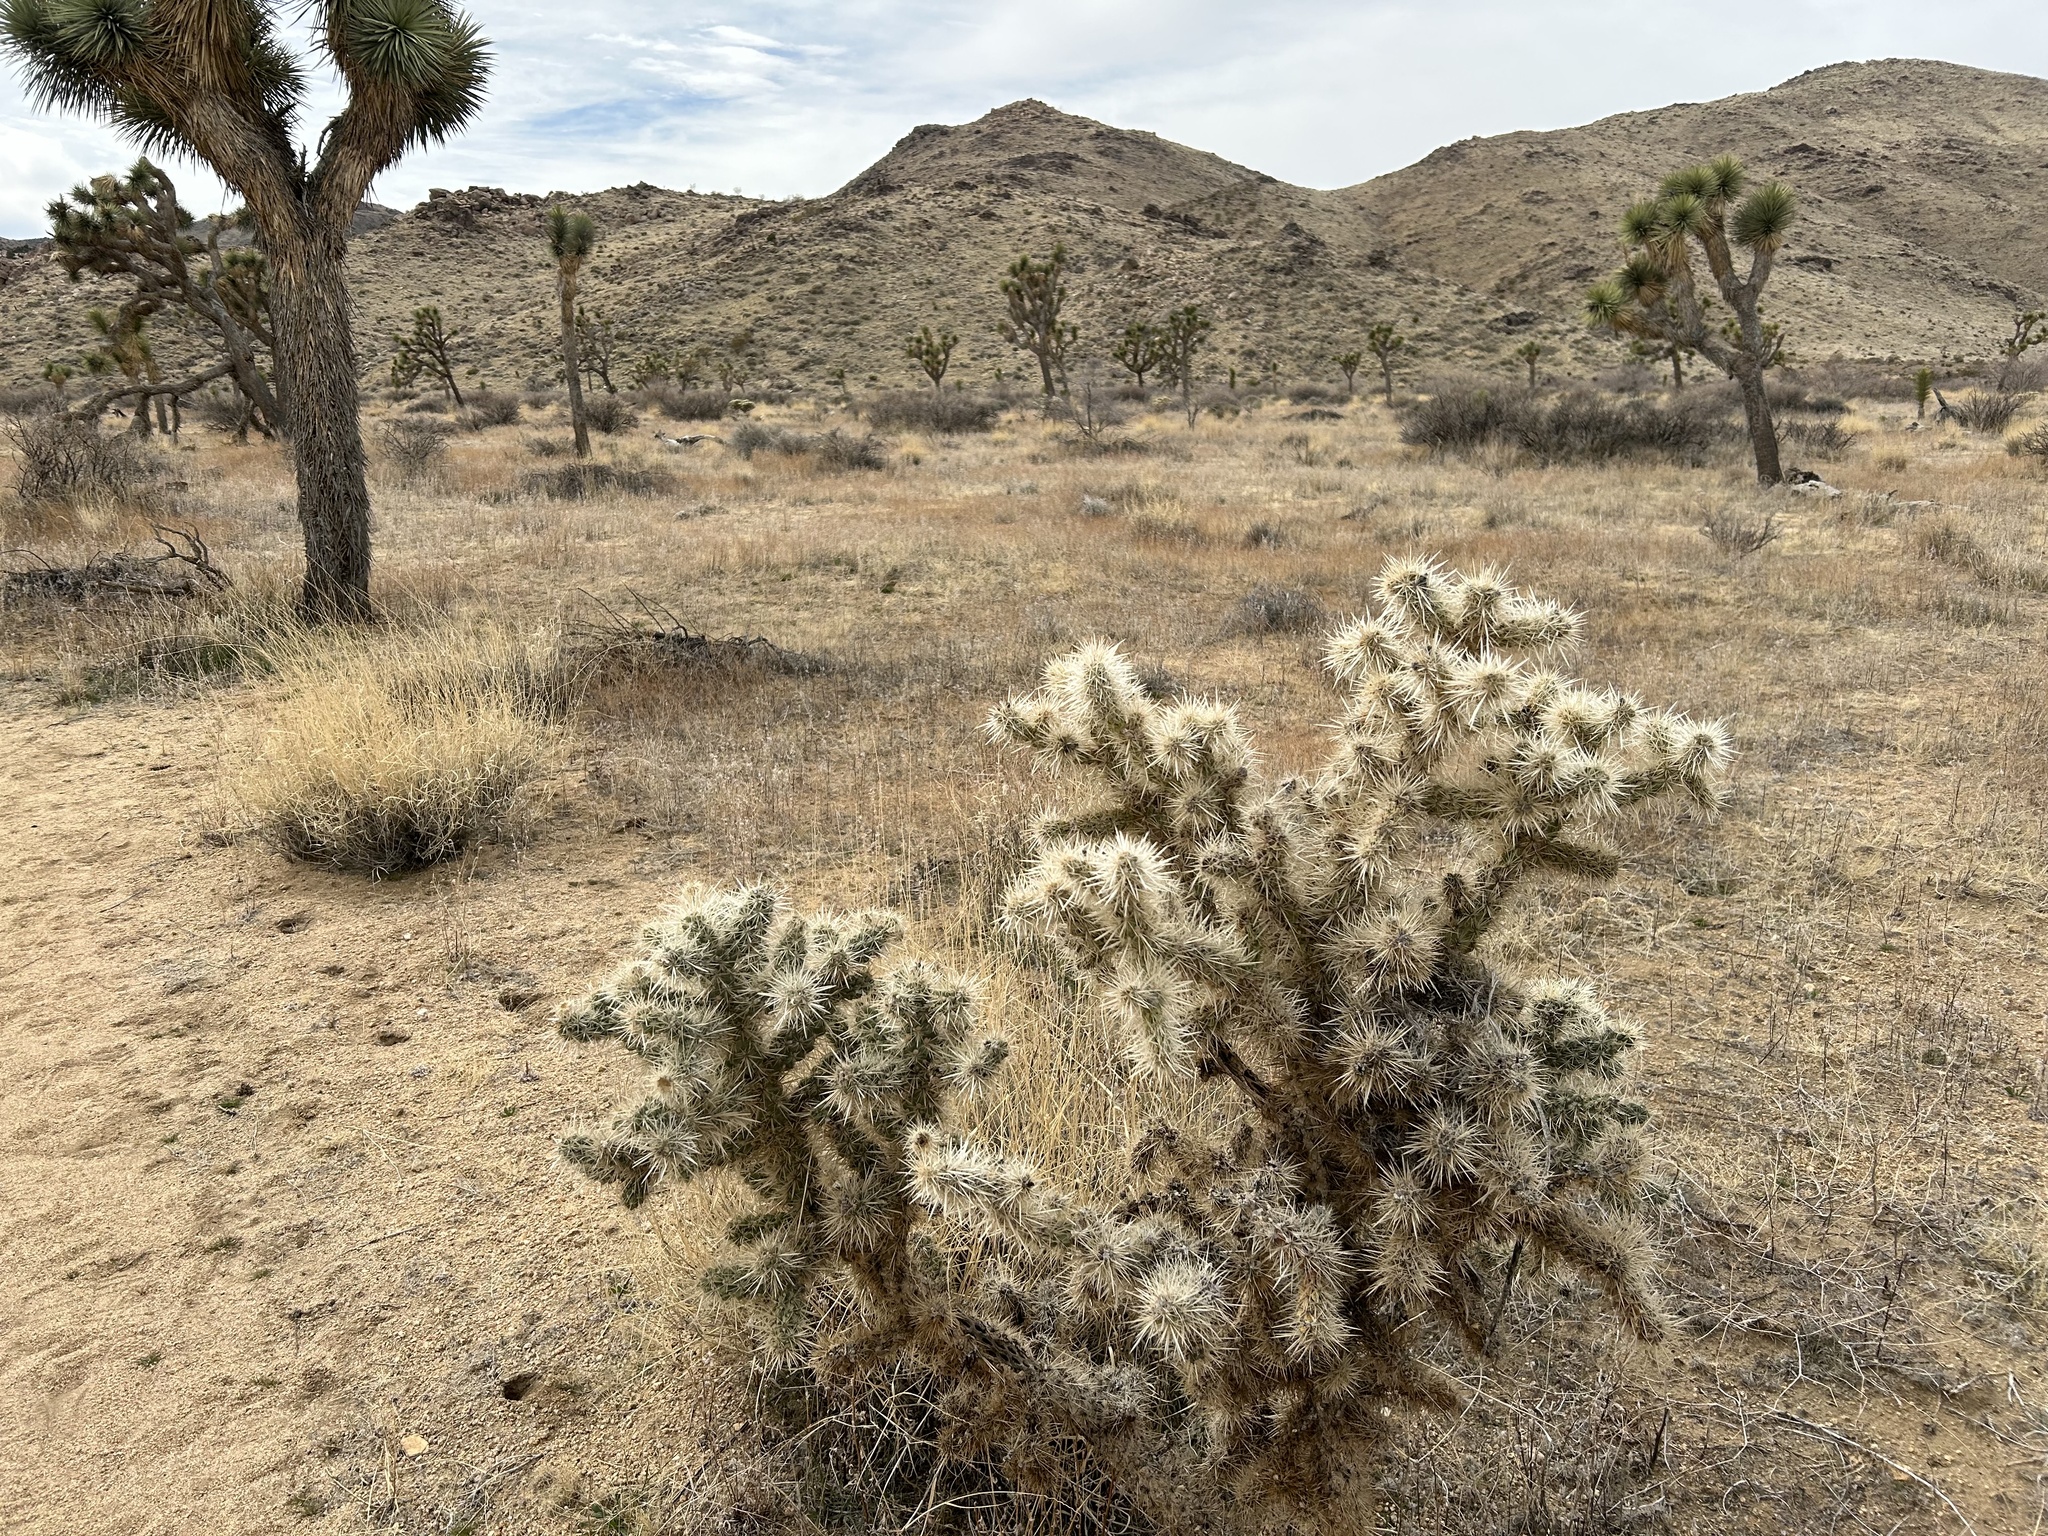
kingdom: Plantae
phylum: Tracheophyta
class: Magnoliopsida
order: Caryophyllales
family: Cactaceae
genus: Cylindropuntia
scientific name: Cylindropuntia echinocarpa
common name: Ground cholla
